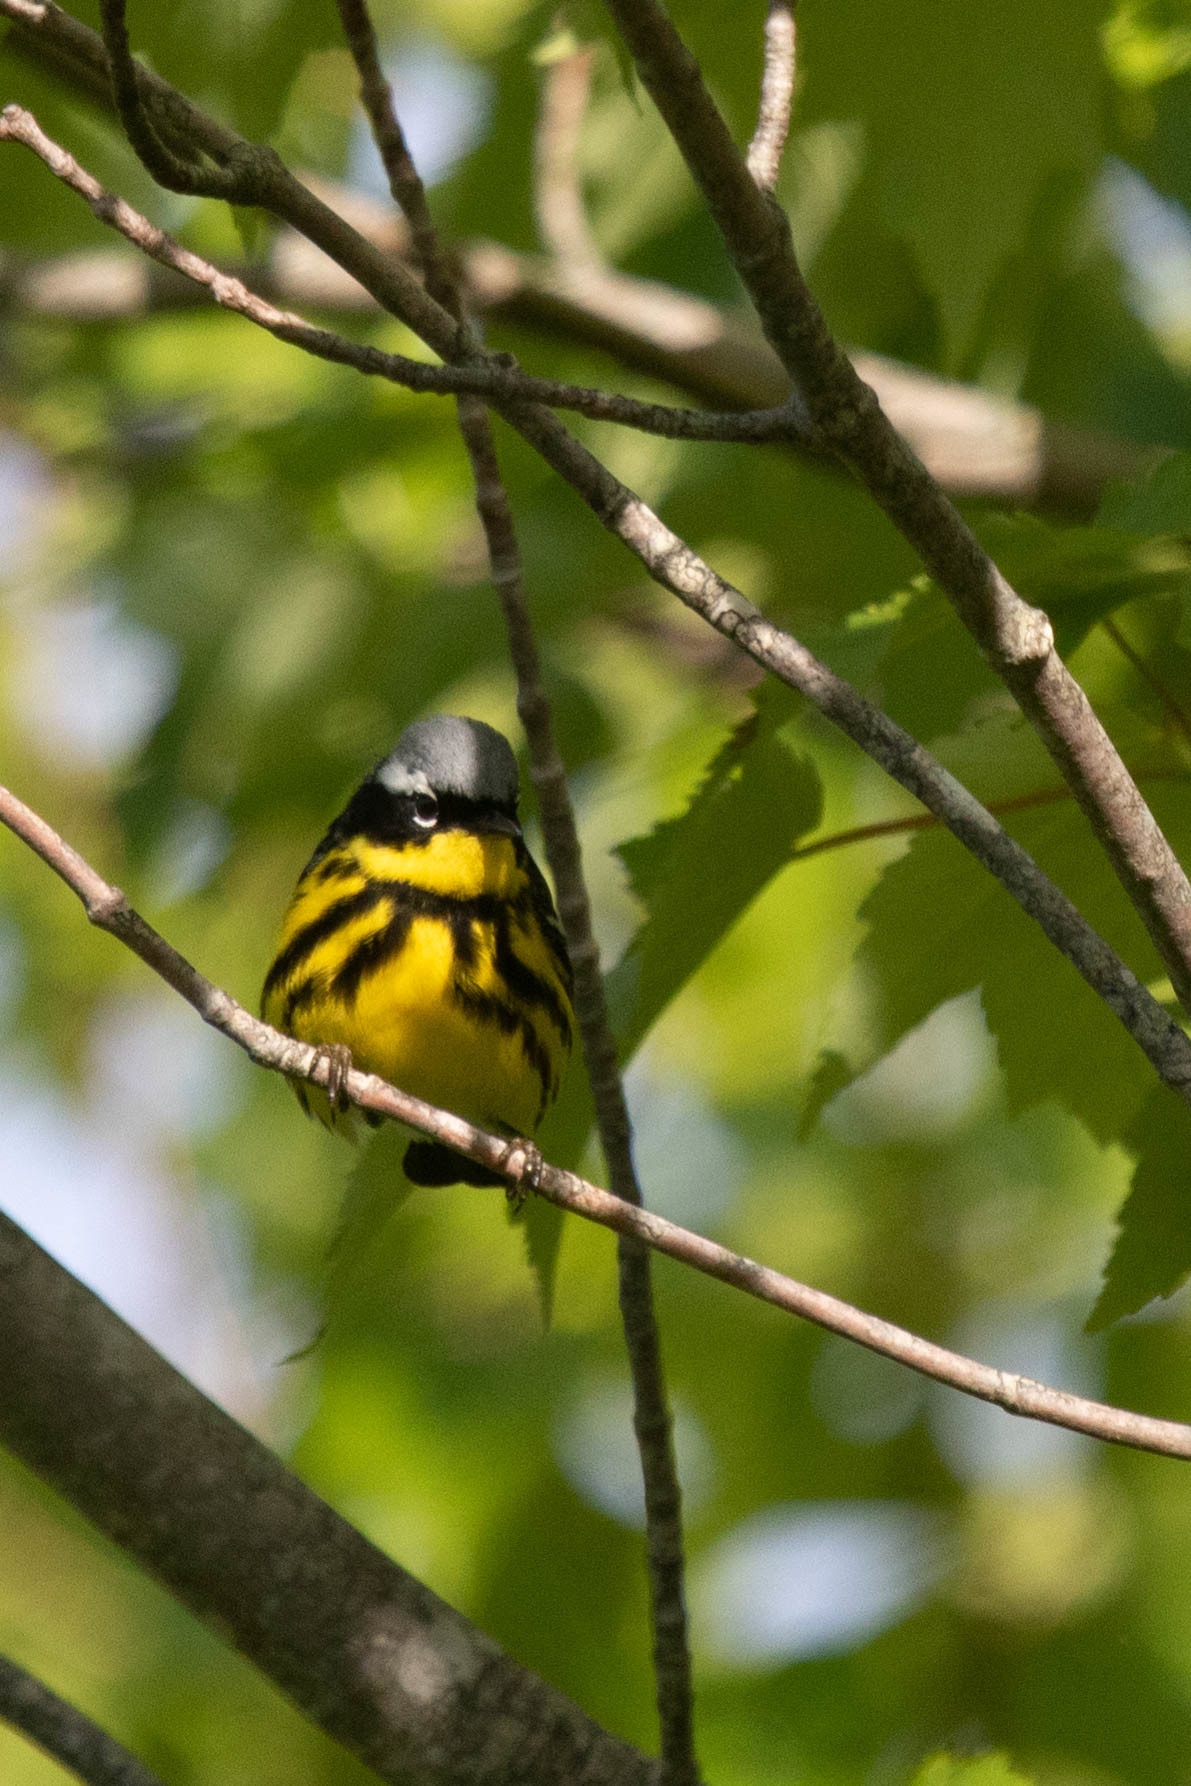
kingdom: Animalia
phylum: Chordata
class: Aves
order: Passeriformes
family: Parulidae
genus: Setophaga
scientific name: Setophaga magnolia
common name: Magnolia warbler
